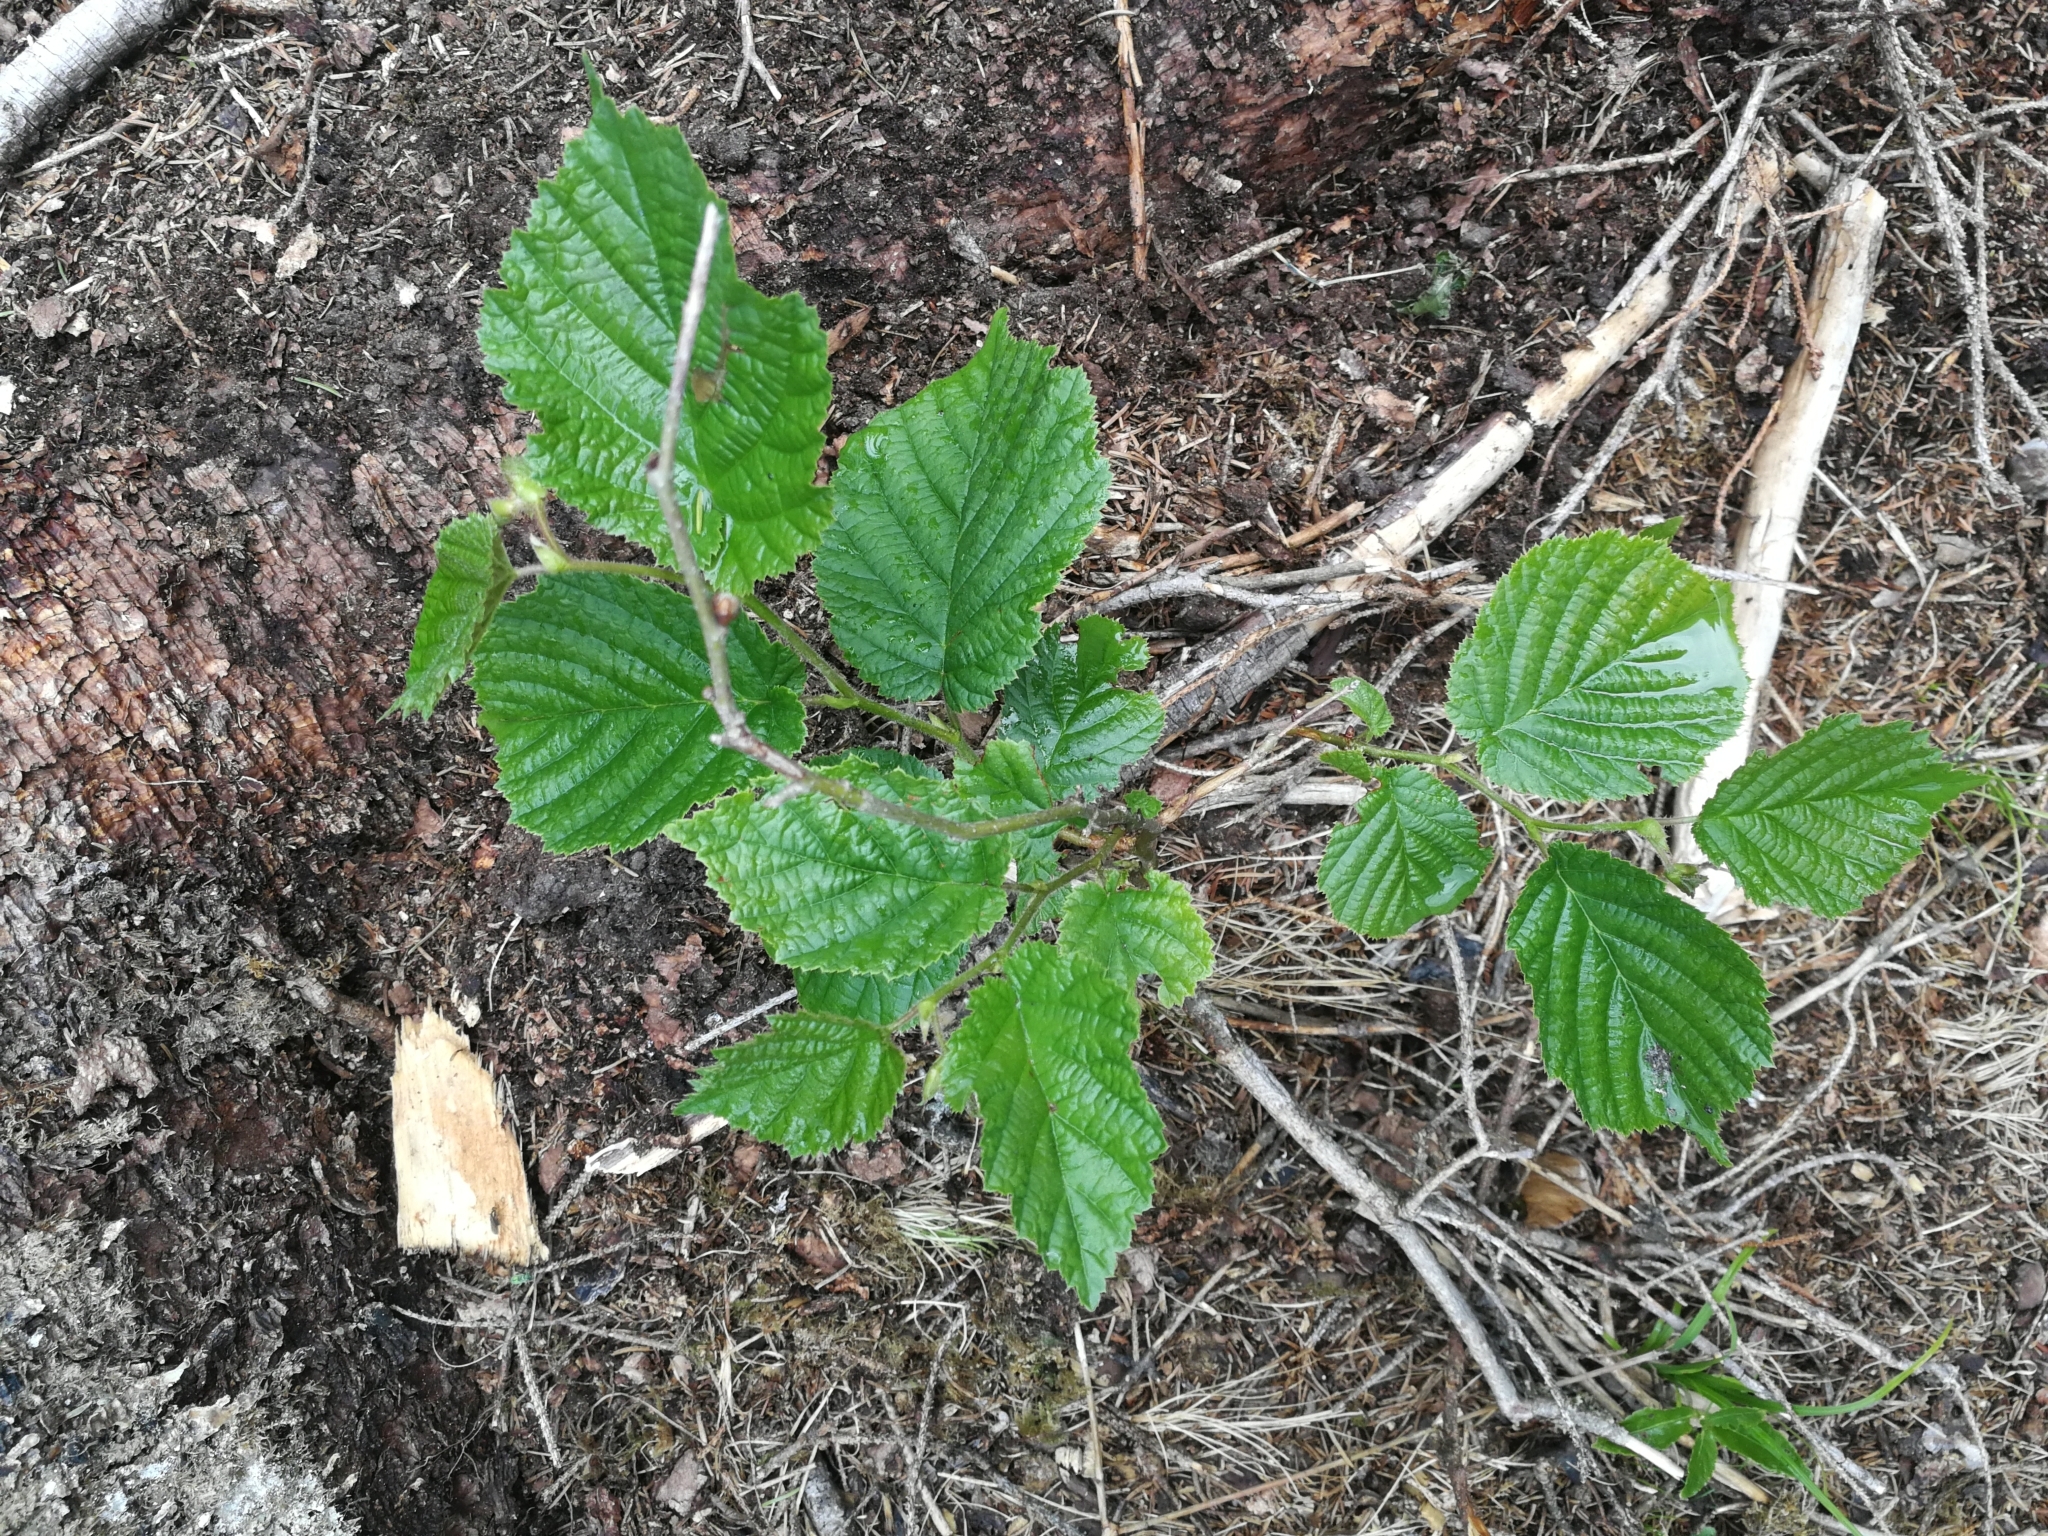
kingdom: Plantae
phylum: Tracheophyta
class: Magnoliopsida
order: Fagales
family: Betulaceae
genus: Corylus
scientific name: Corylus avellana
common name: European hazel
